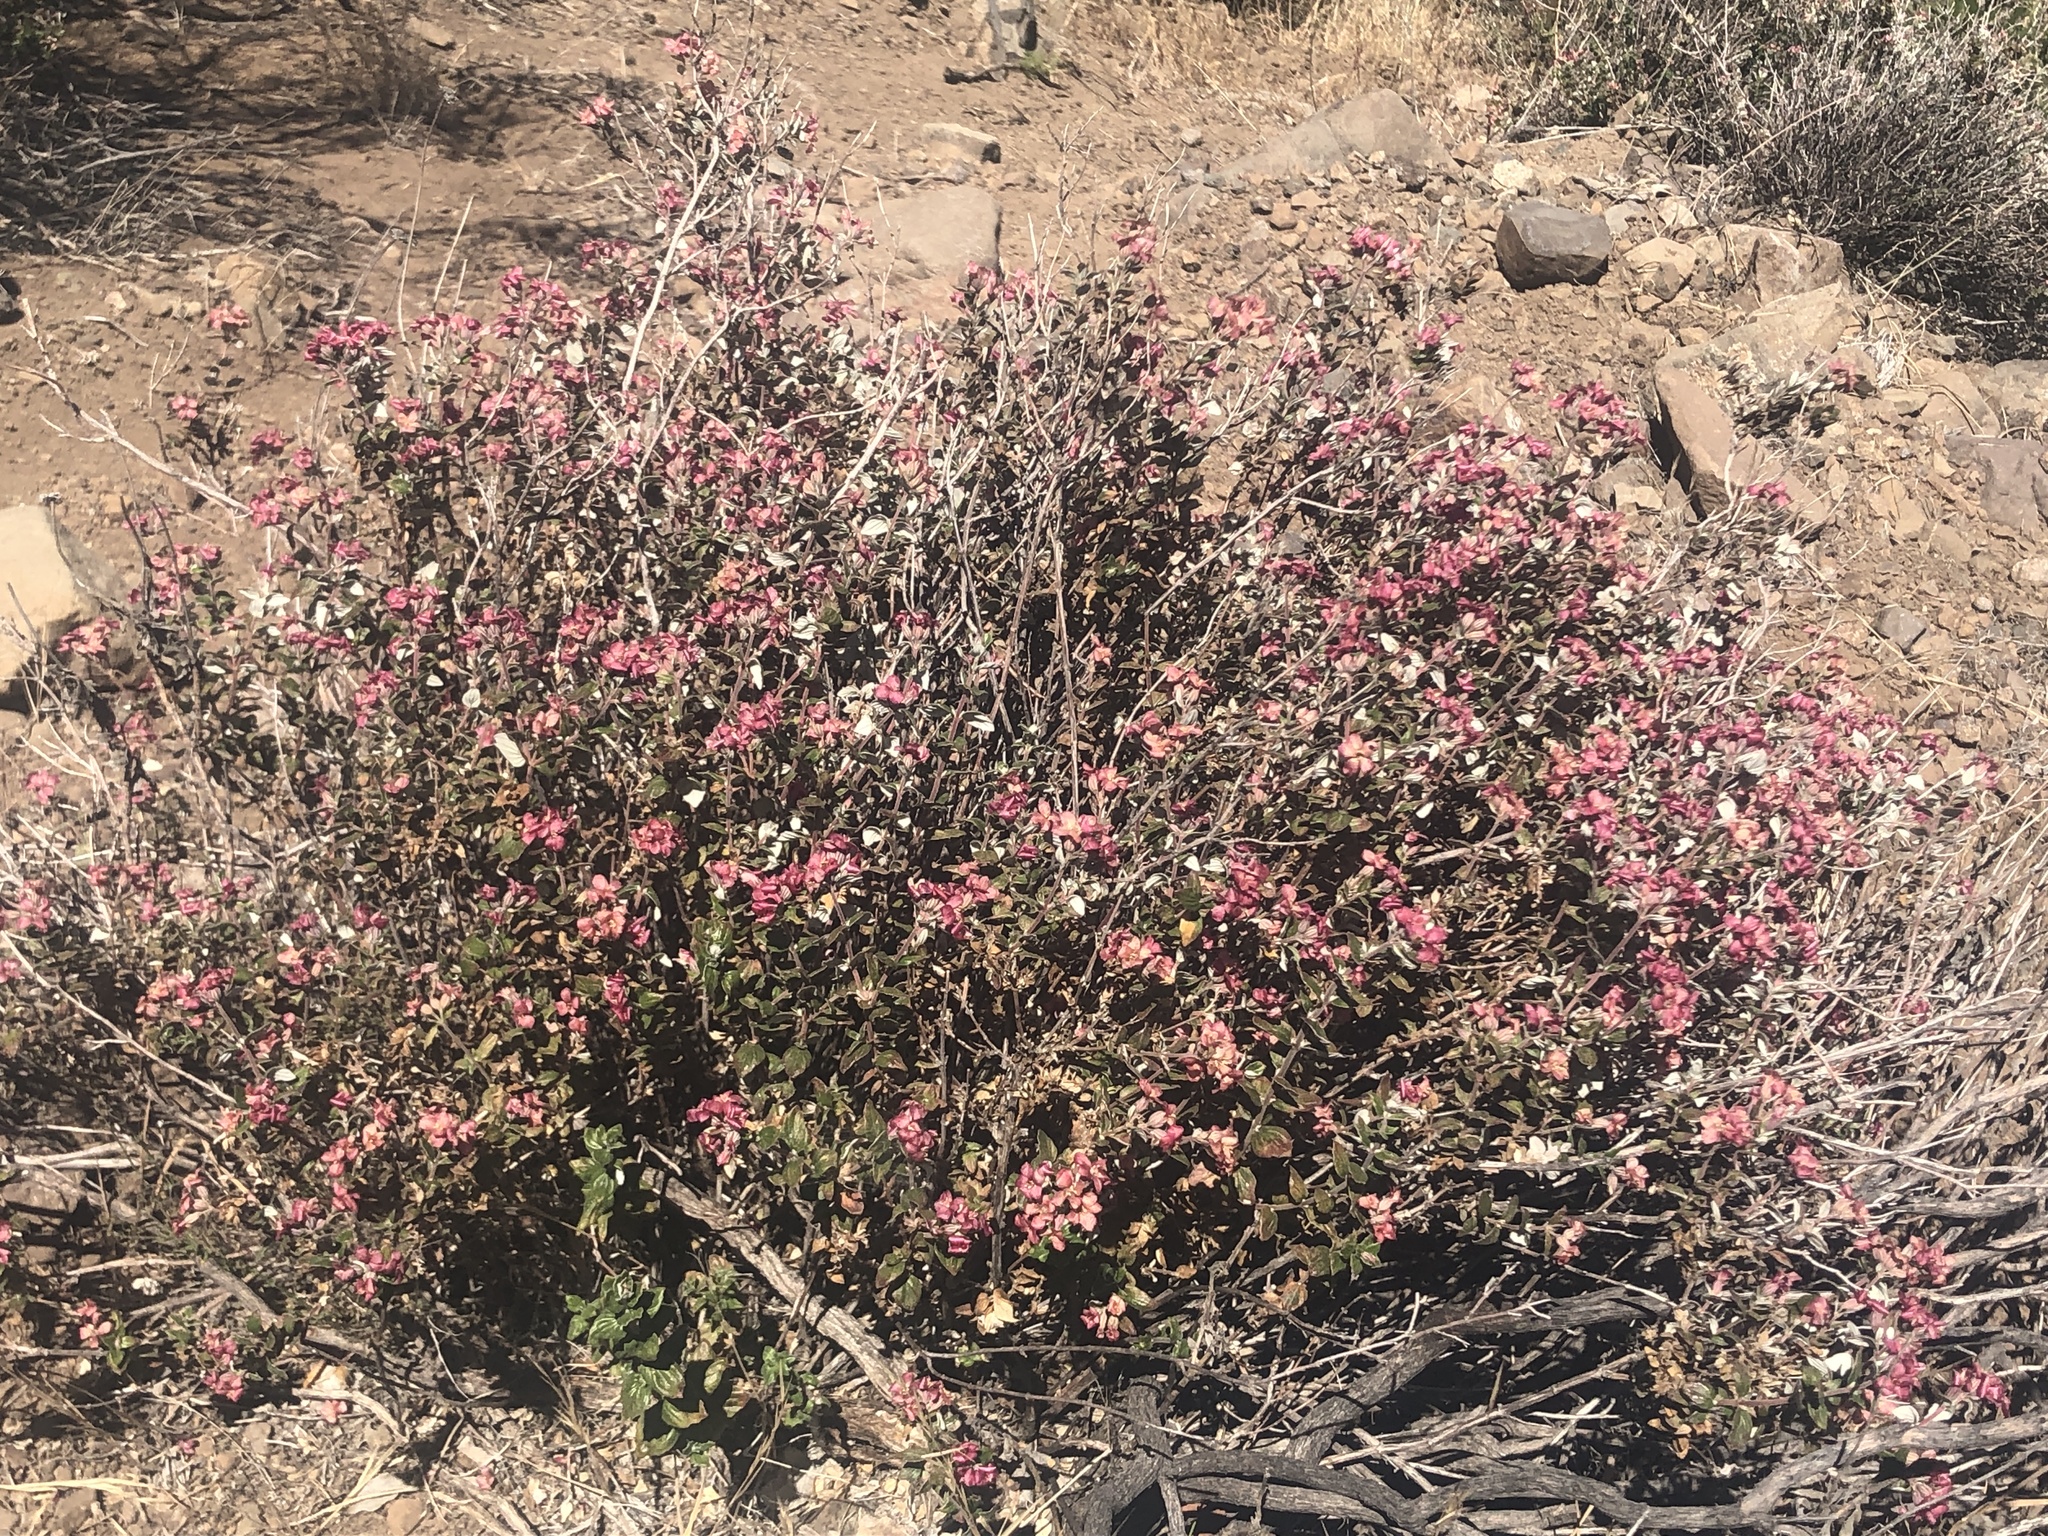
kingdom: Plantae
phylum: Tracheophyta
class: Magnoliopsida
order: Geraniales
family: Vivianiaceae
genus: Viviania
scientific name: Viviania marifolia
